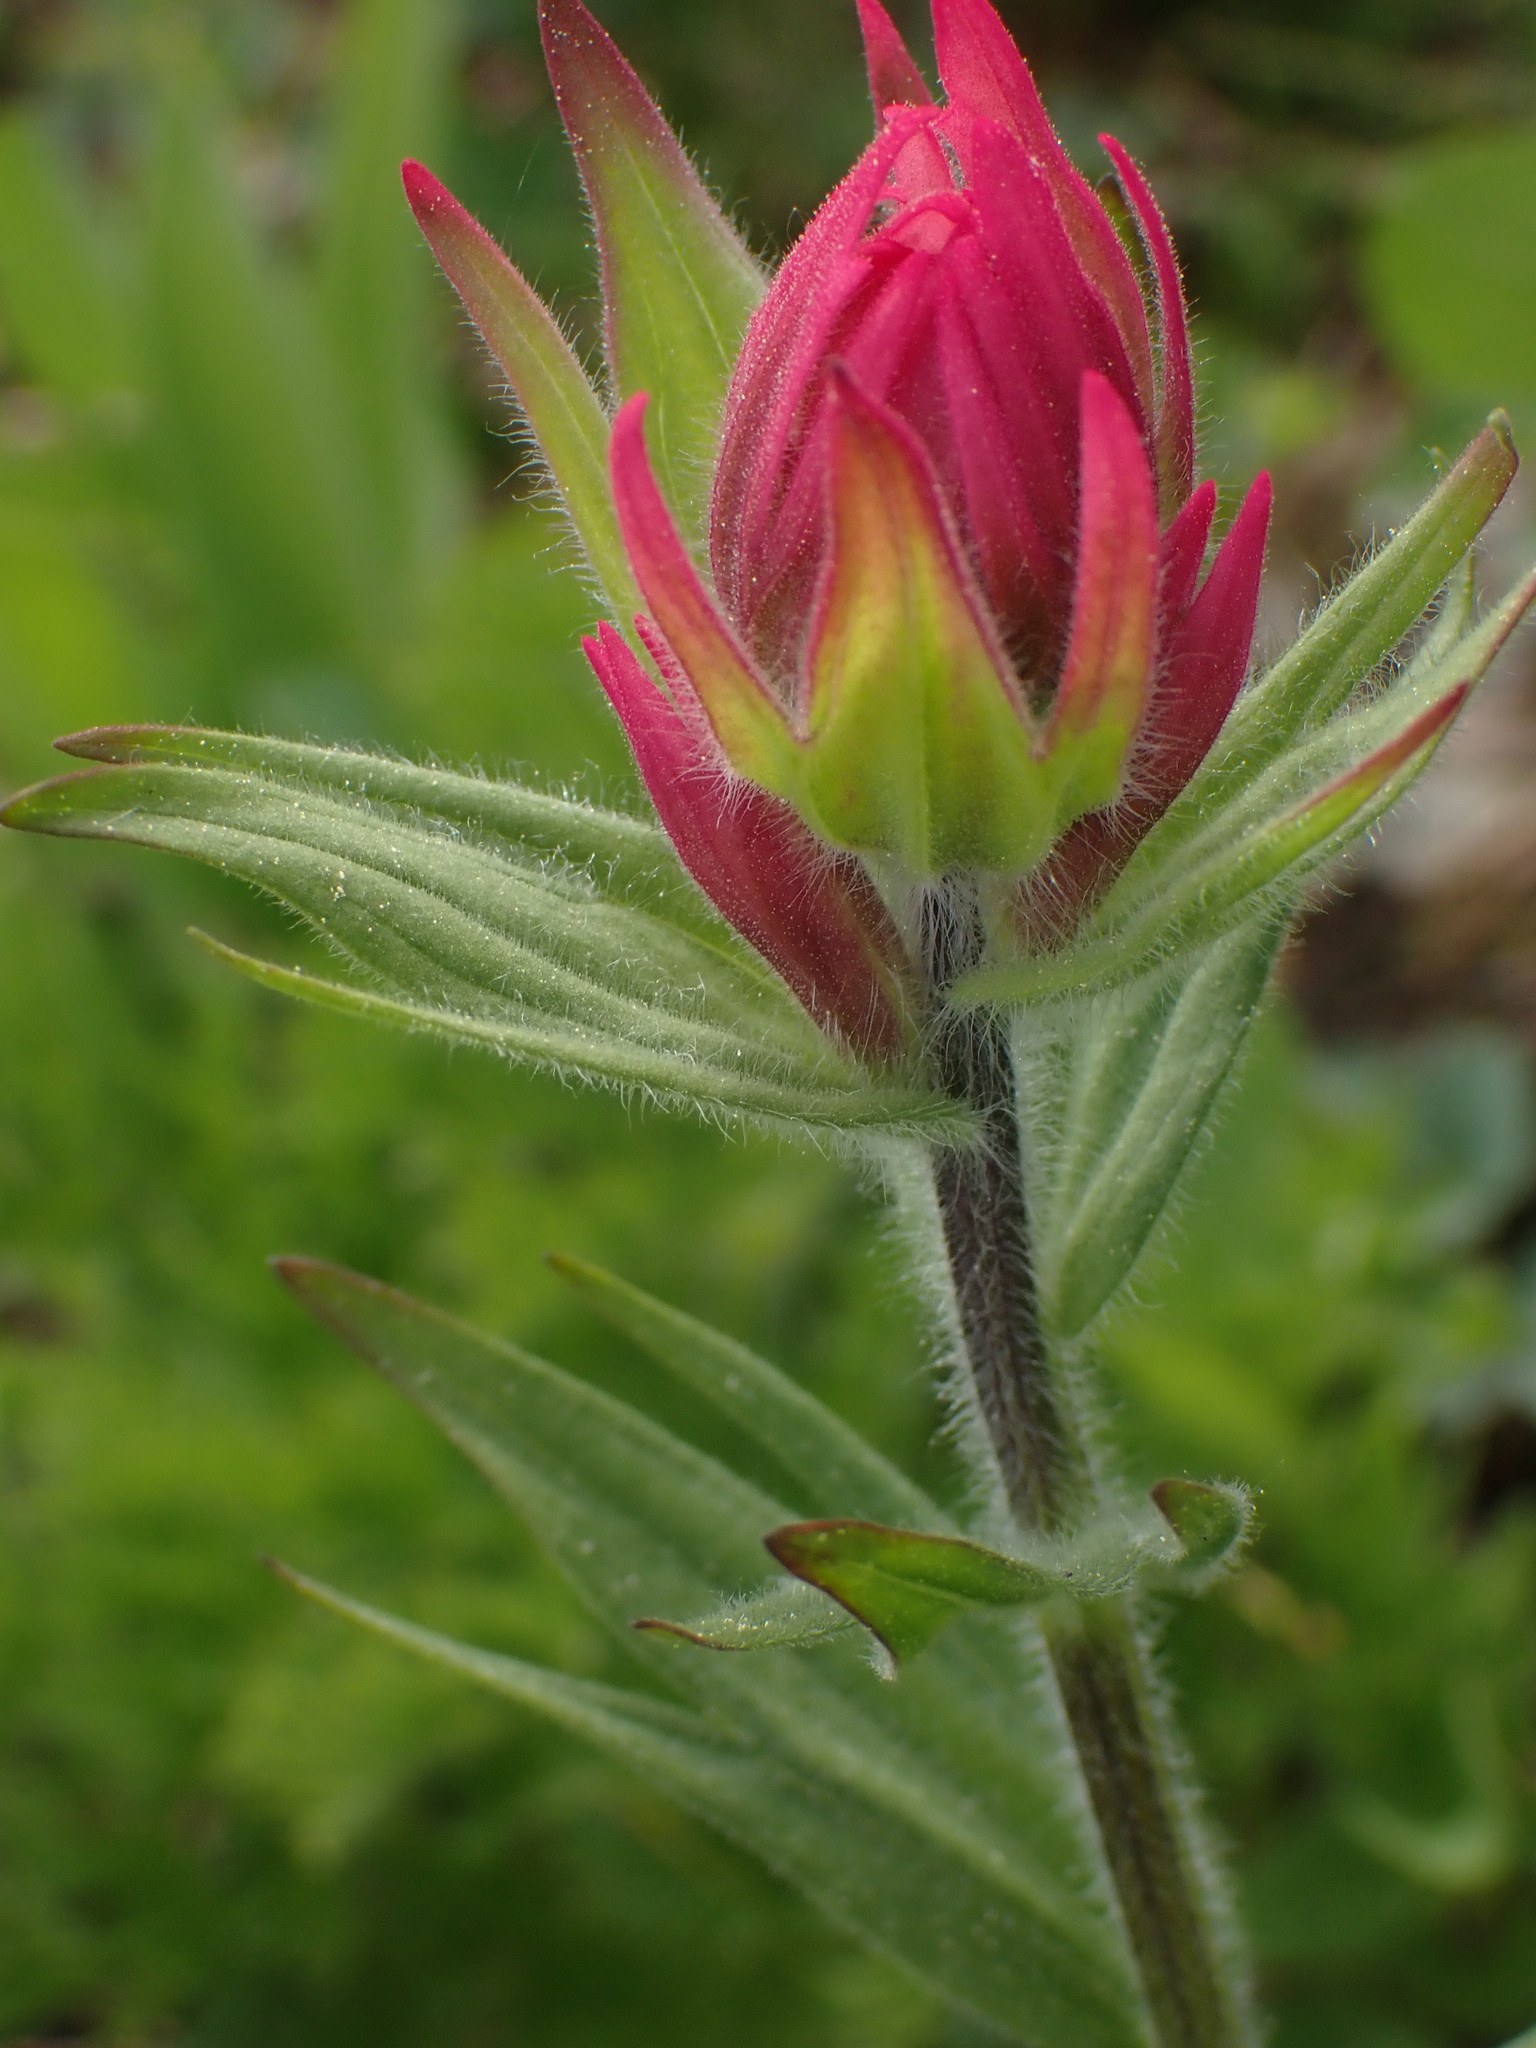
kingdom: Plantae
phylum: Tracheophyta
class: Magnoliopsida
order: Lamiales
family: Orobanchaceae
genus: Castilleja
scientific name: Castilleja rhexifolia
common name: Rocky mountain paintbrush
